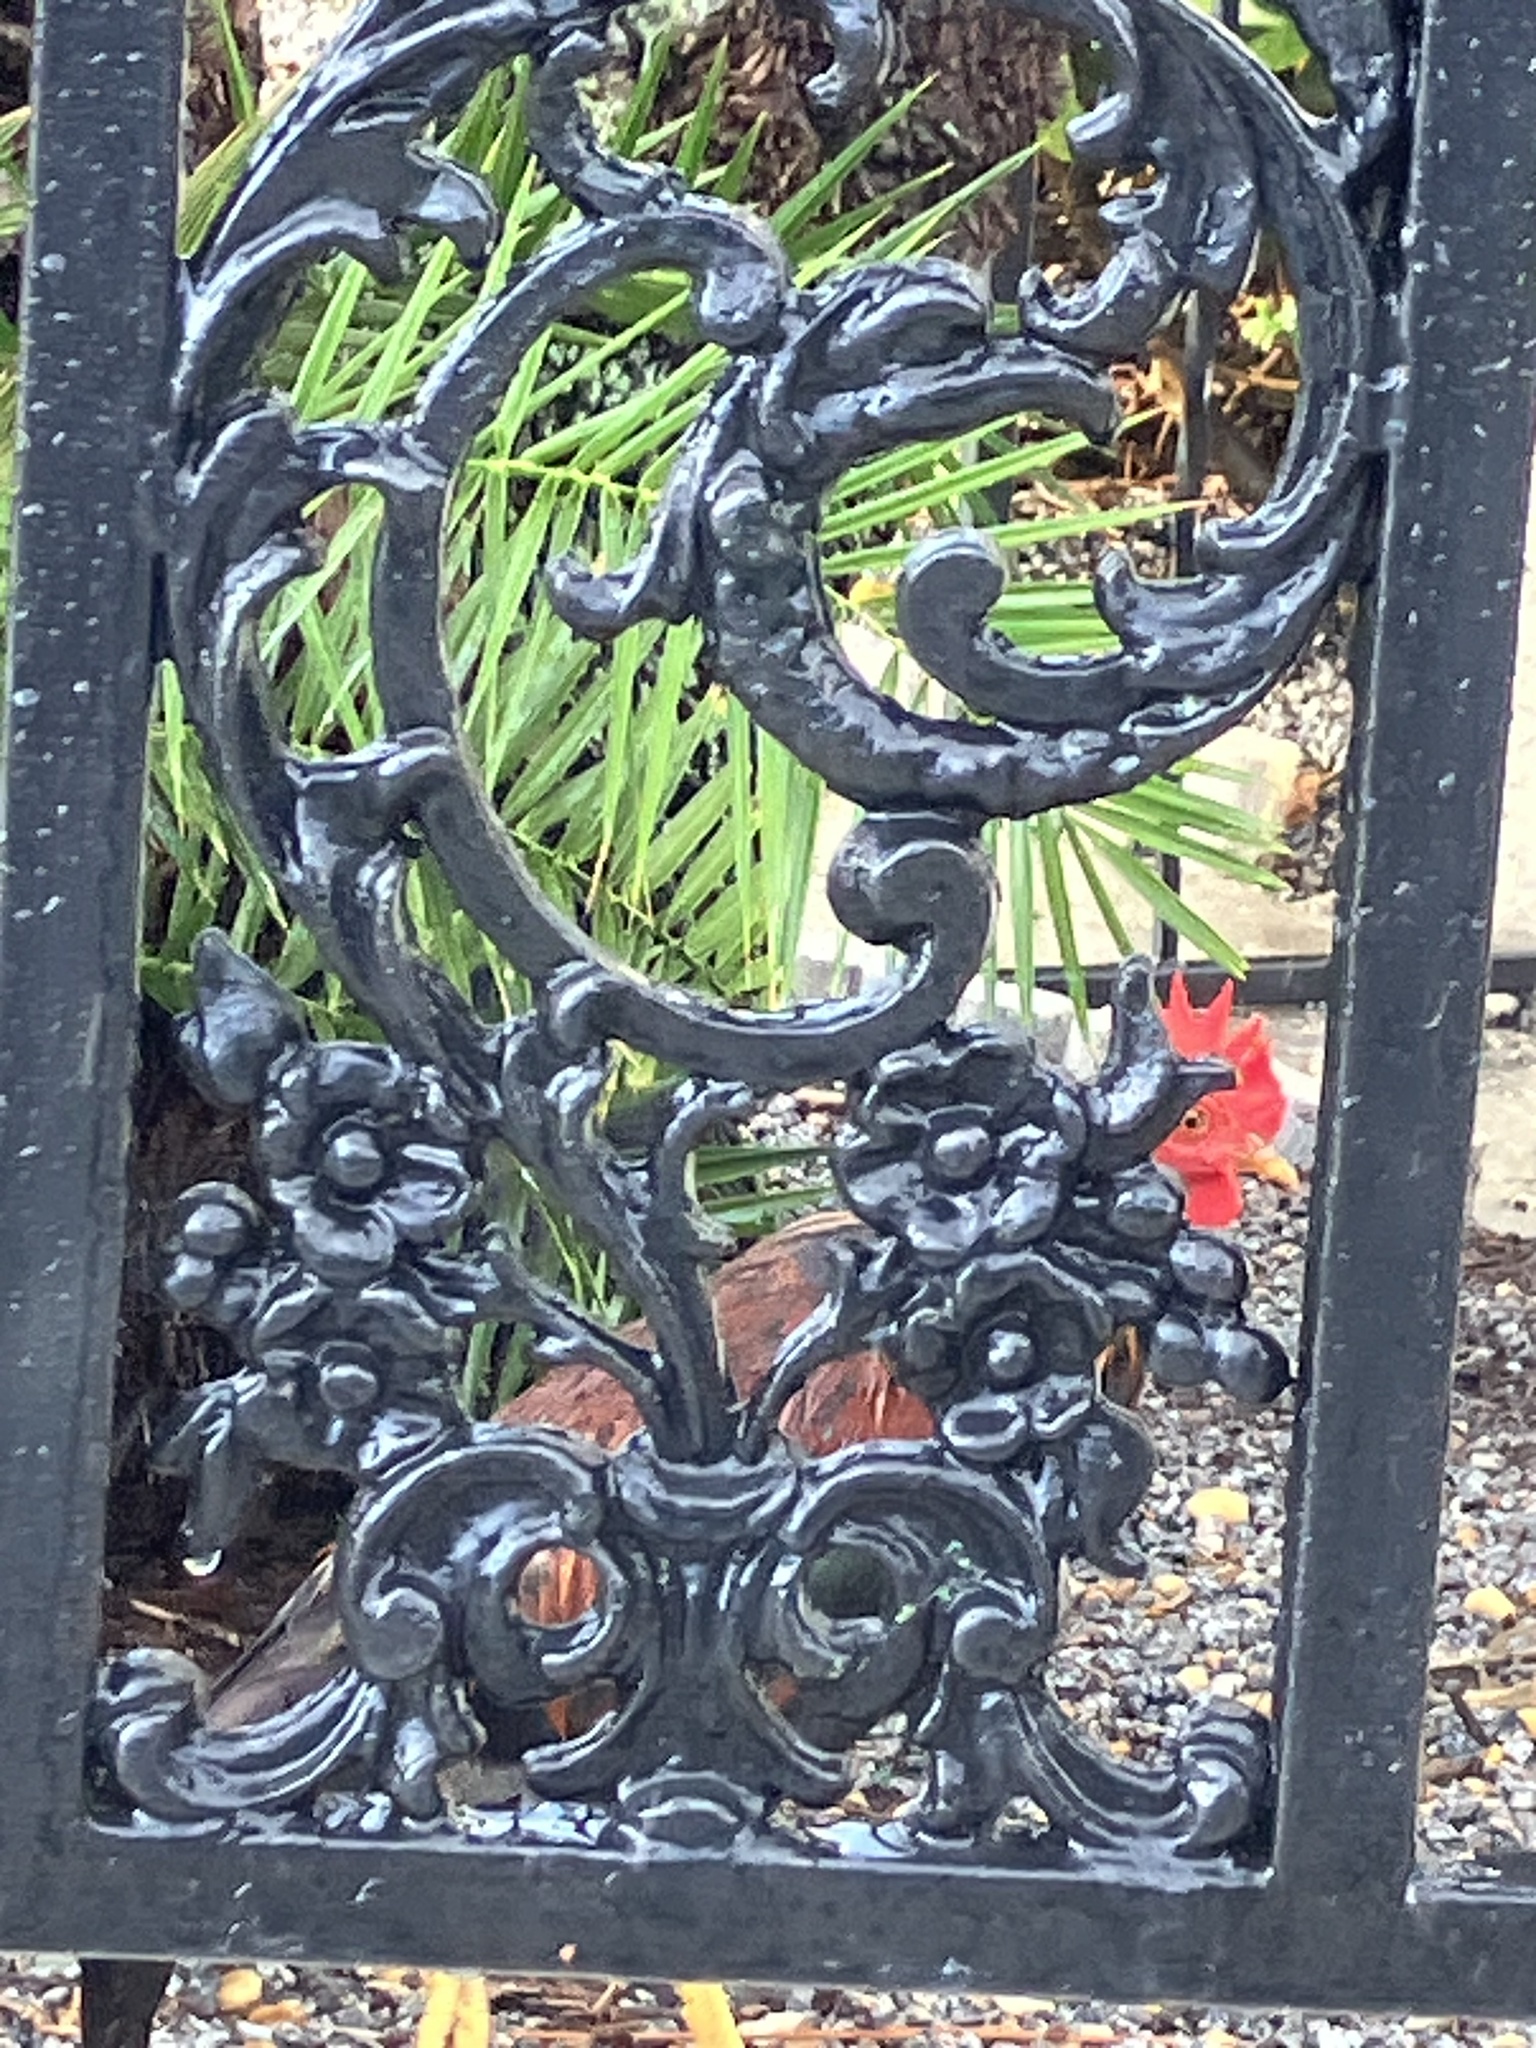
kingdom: Animalia
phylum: Chordata
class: Aves
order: Galliformes
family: Phasianidae
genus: Gallus
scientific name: Gallus gallus
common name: Red junglefowl
